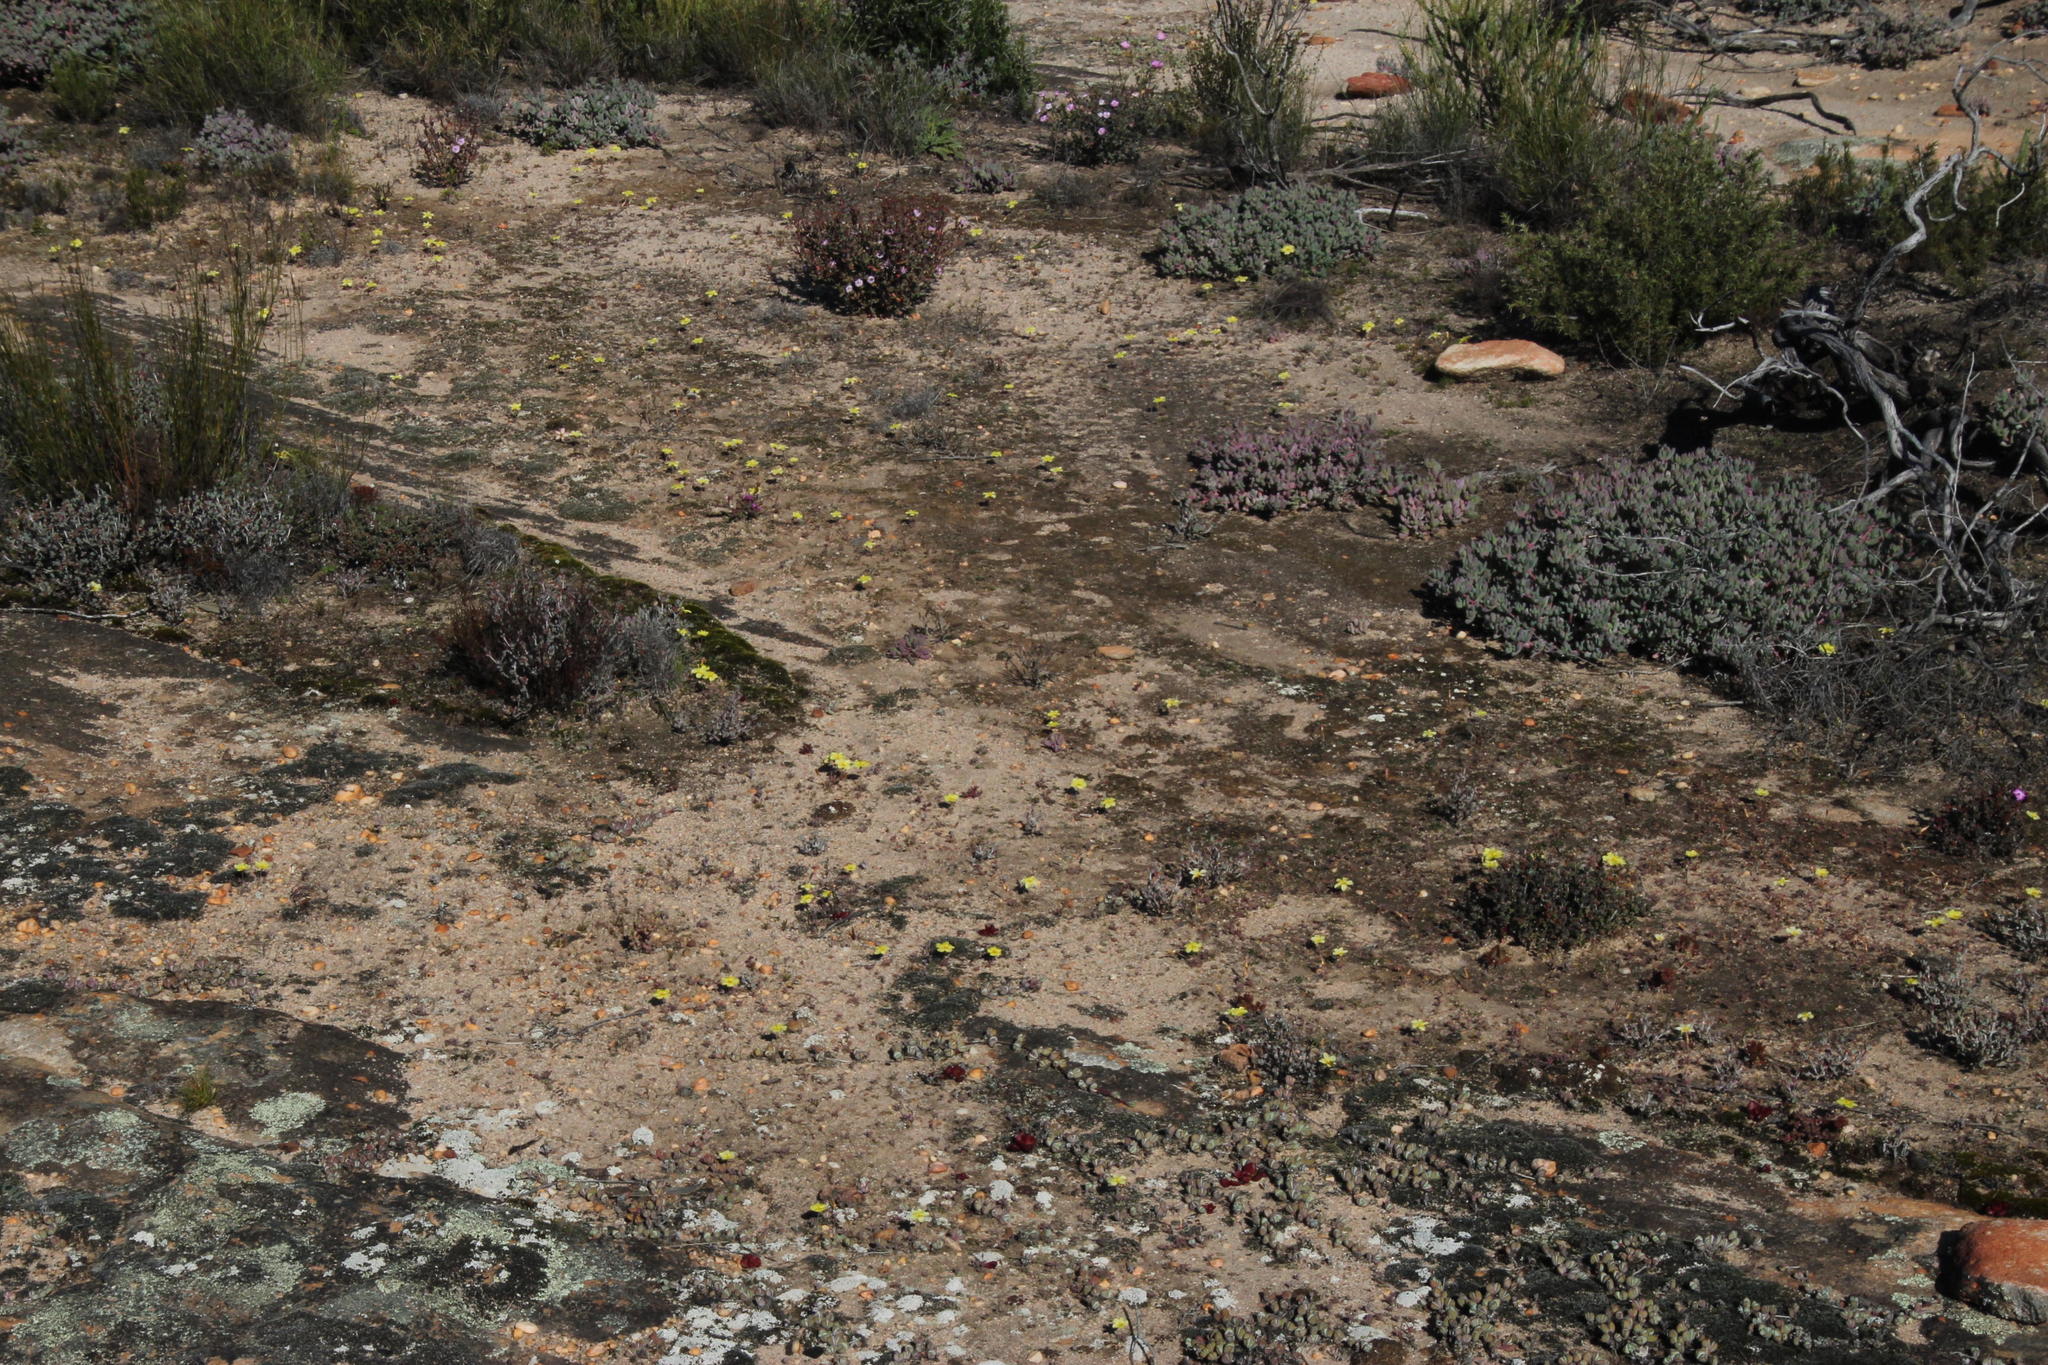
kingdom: Plantae
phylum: Tracheophyta
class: Magnoliopsida
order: Oxalidales
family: Oxalidaceae
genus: Oxalis
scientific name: Oxalis obtusa
